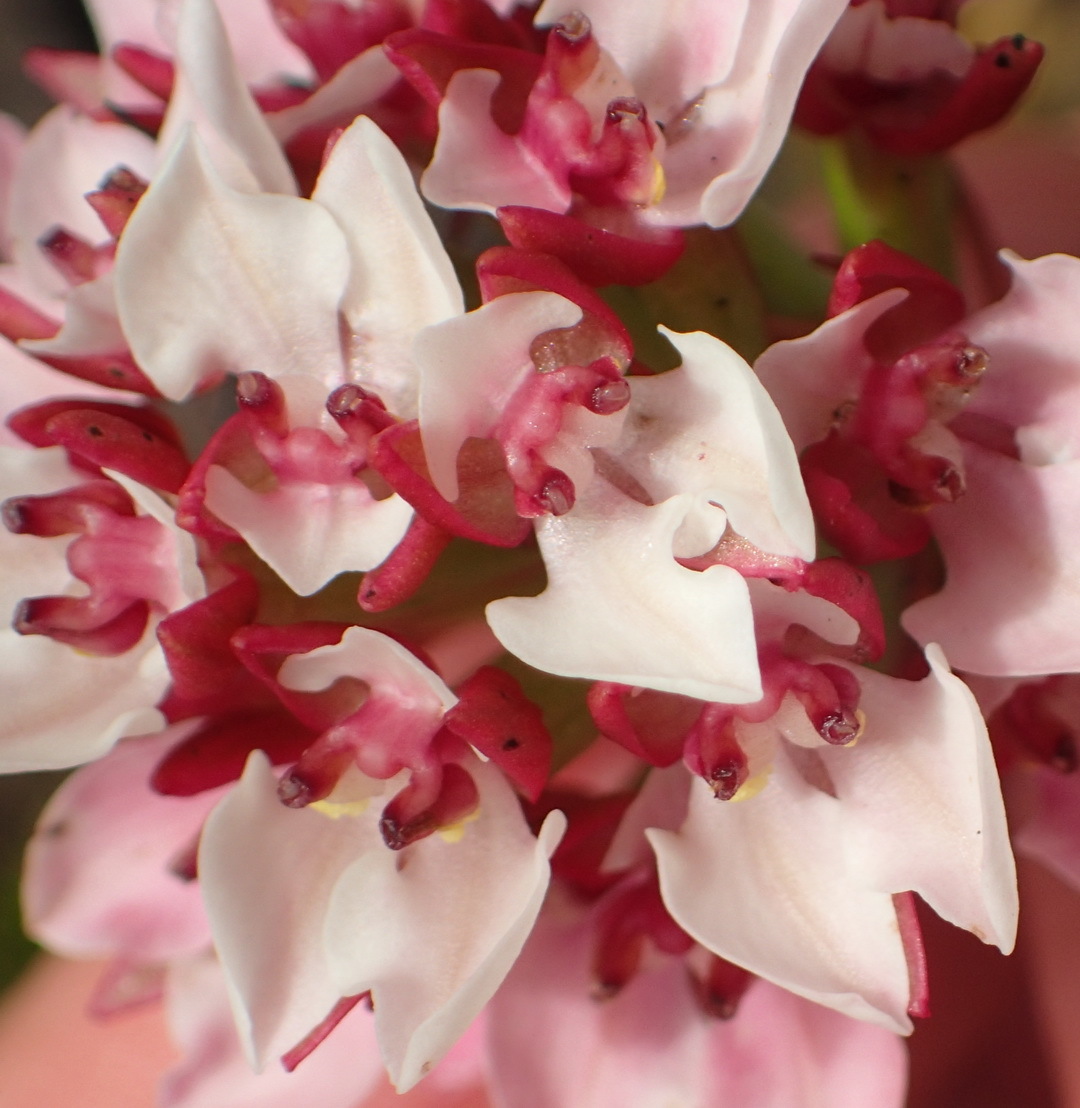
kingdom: Plantae
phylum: Tracheophyta
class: Liliopsida
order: Asparagales
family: Orchidaceae
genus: Ceratandra
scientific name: Ceratandra globosa
